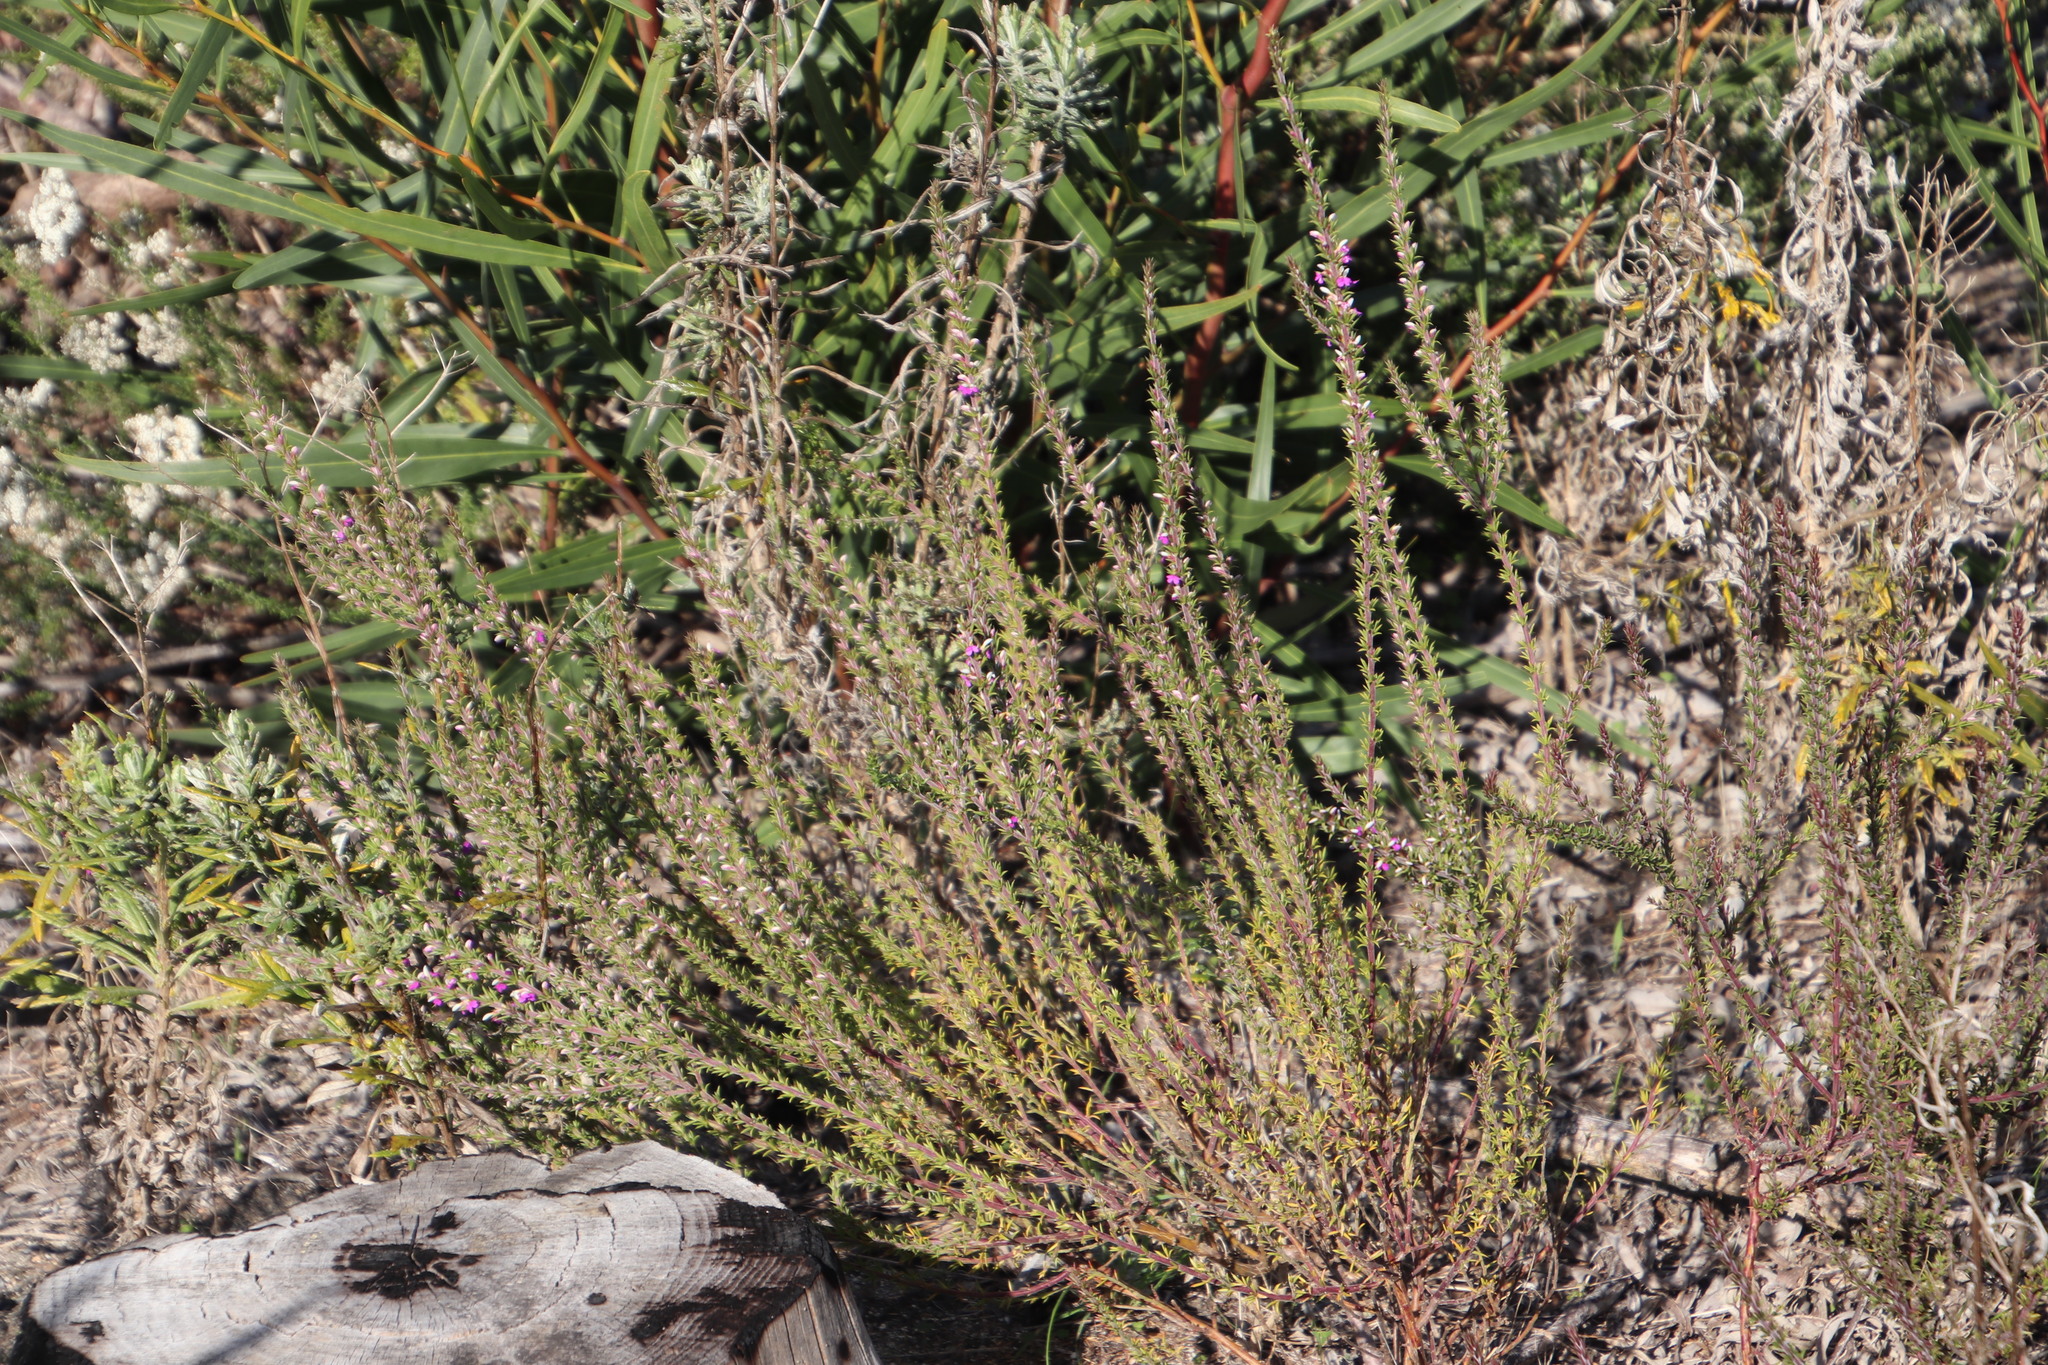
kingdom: Plantae
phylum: Tracheophyta
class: Magnoliopsida
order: Fabales
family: Polygalaceae
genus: Muraltia
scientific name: Muraltia heisteria
